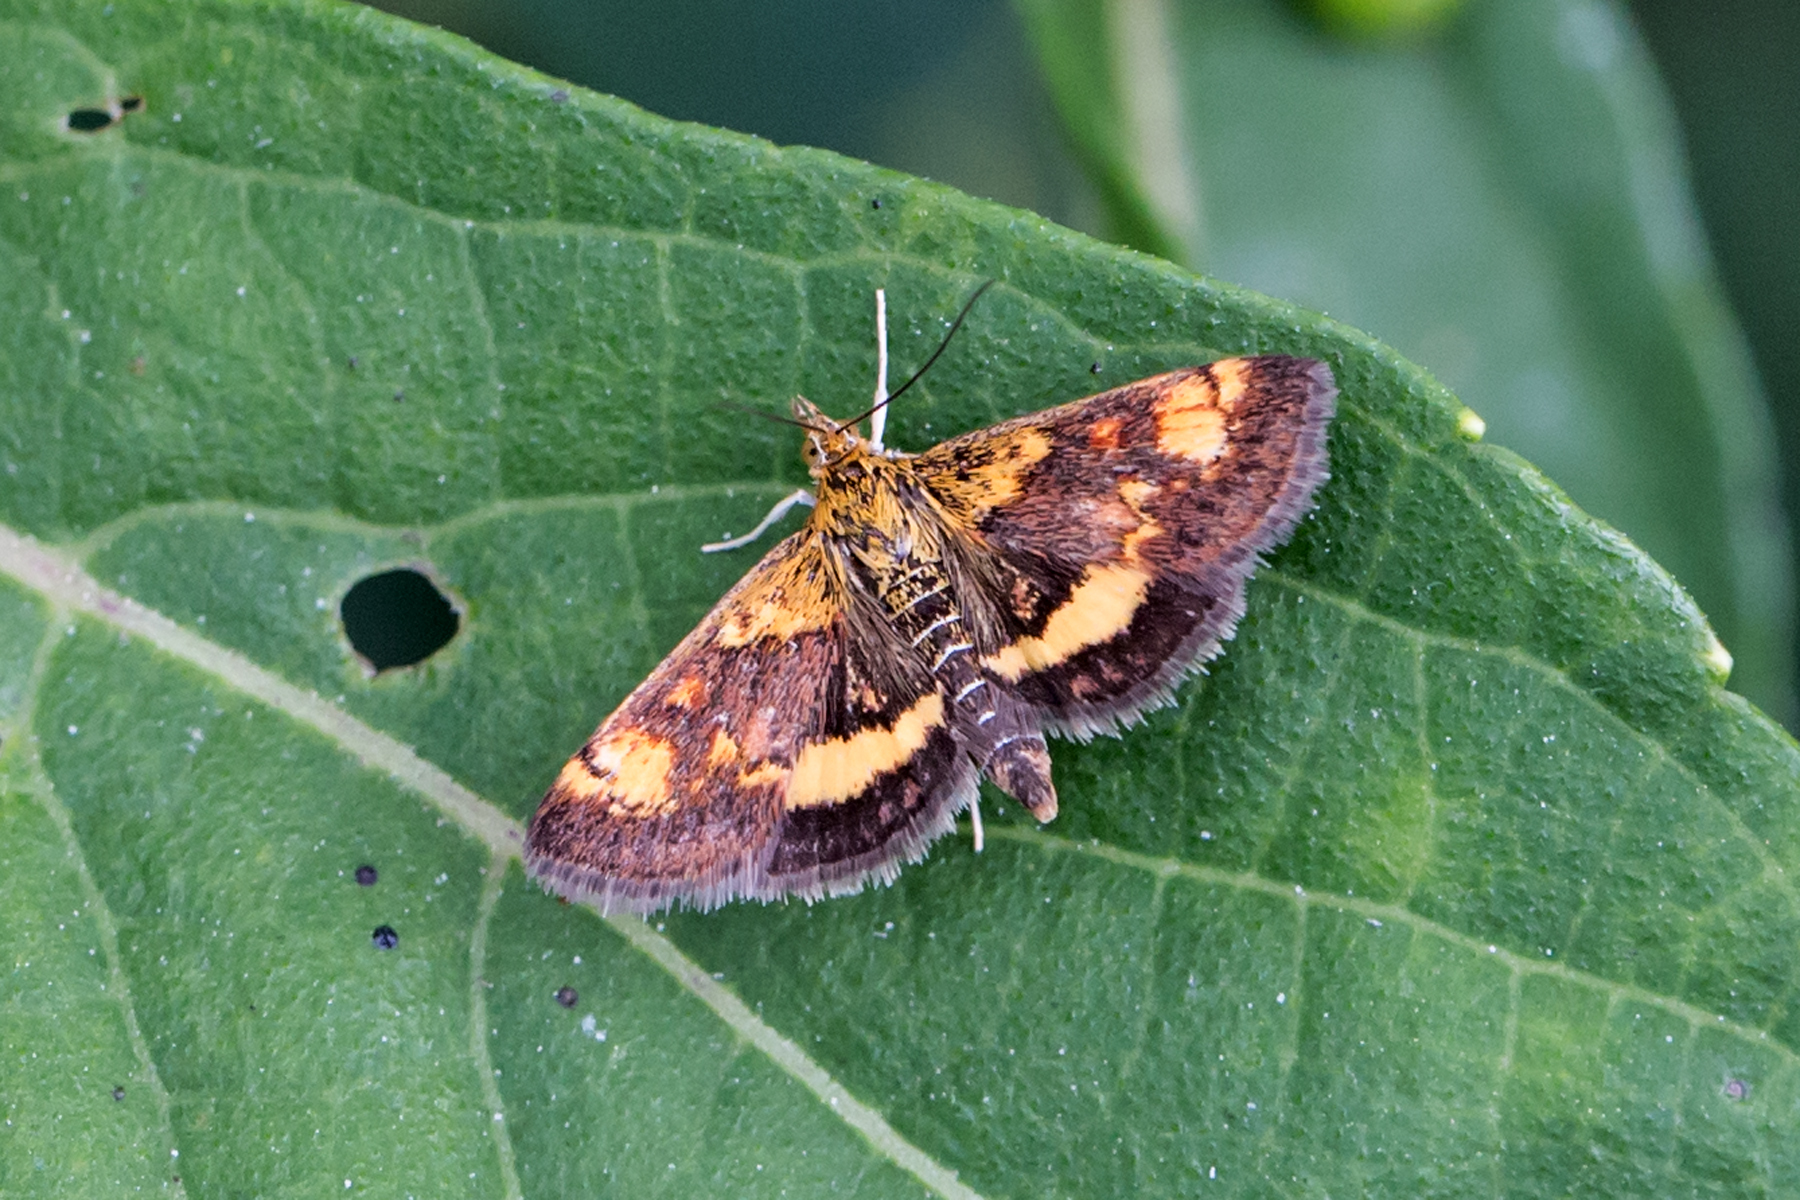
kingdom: Animalia
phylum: Arthropoda
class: Insecta
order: Lepidoptera
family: Crambidae
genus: Pyrausta
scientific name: Pyrausta orphisalis
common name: Orange mint moth
